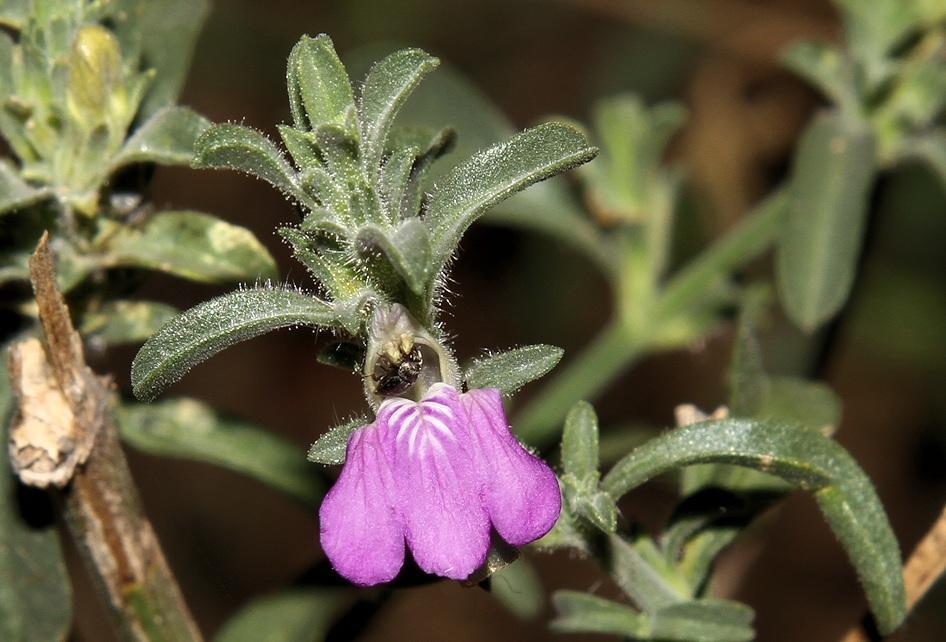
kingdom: Plantae
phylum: Tracheophyta
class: Magnoliopsida
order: Lamiales
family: Acanthaceae
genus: Pogonospermum
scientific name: Pogonospermum
